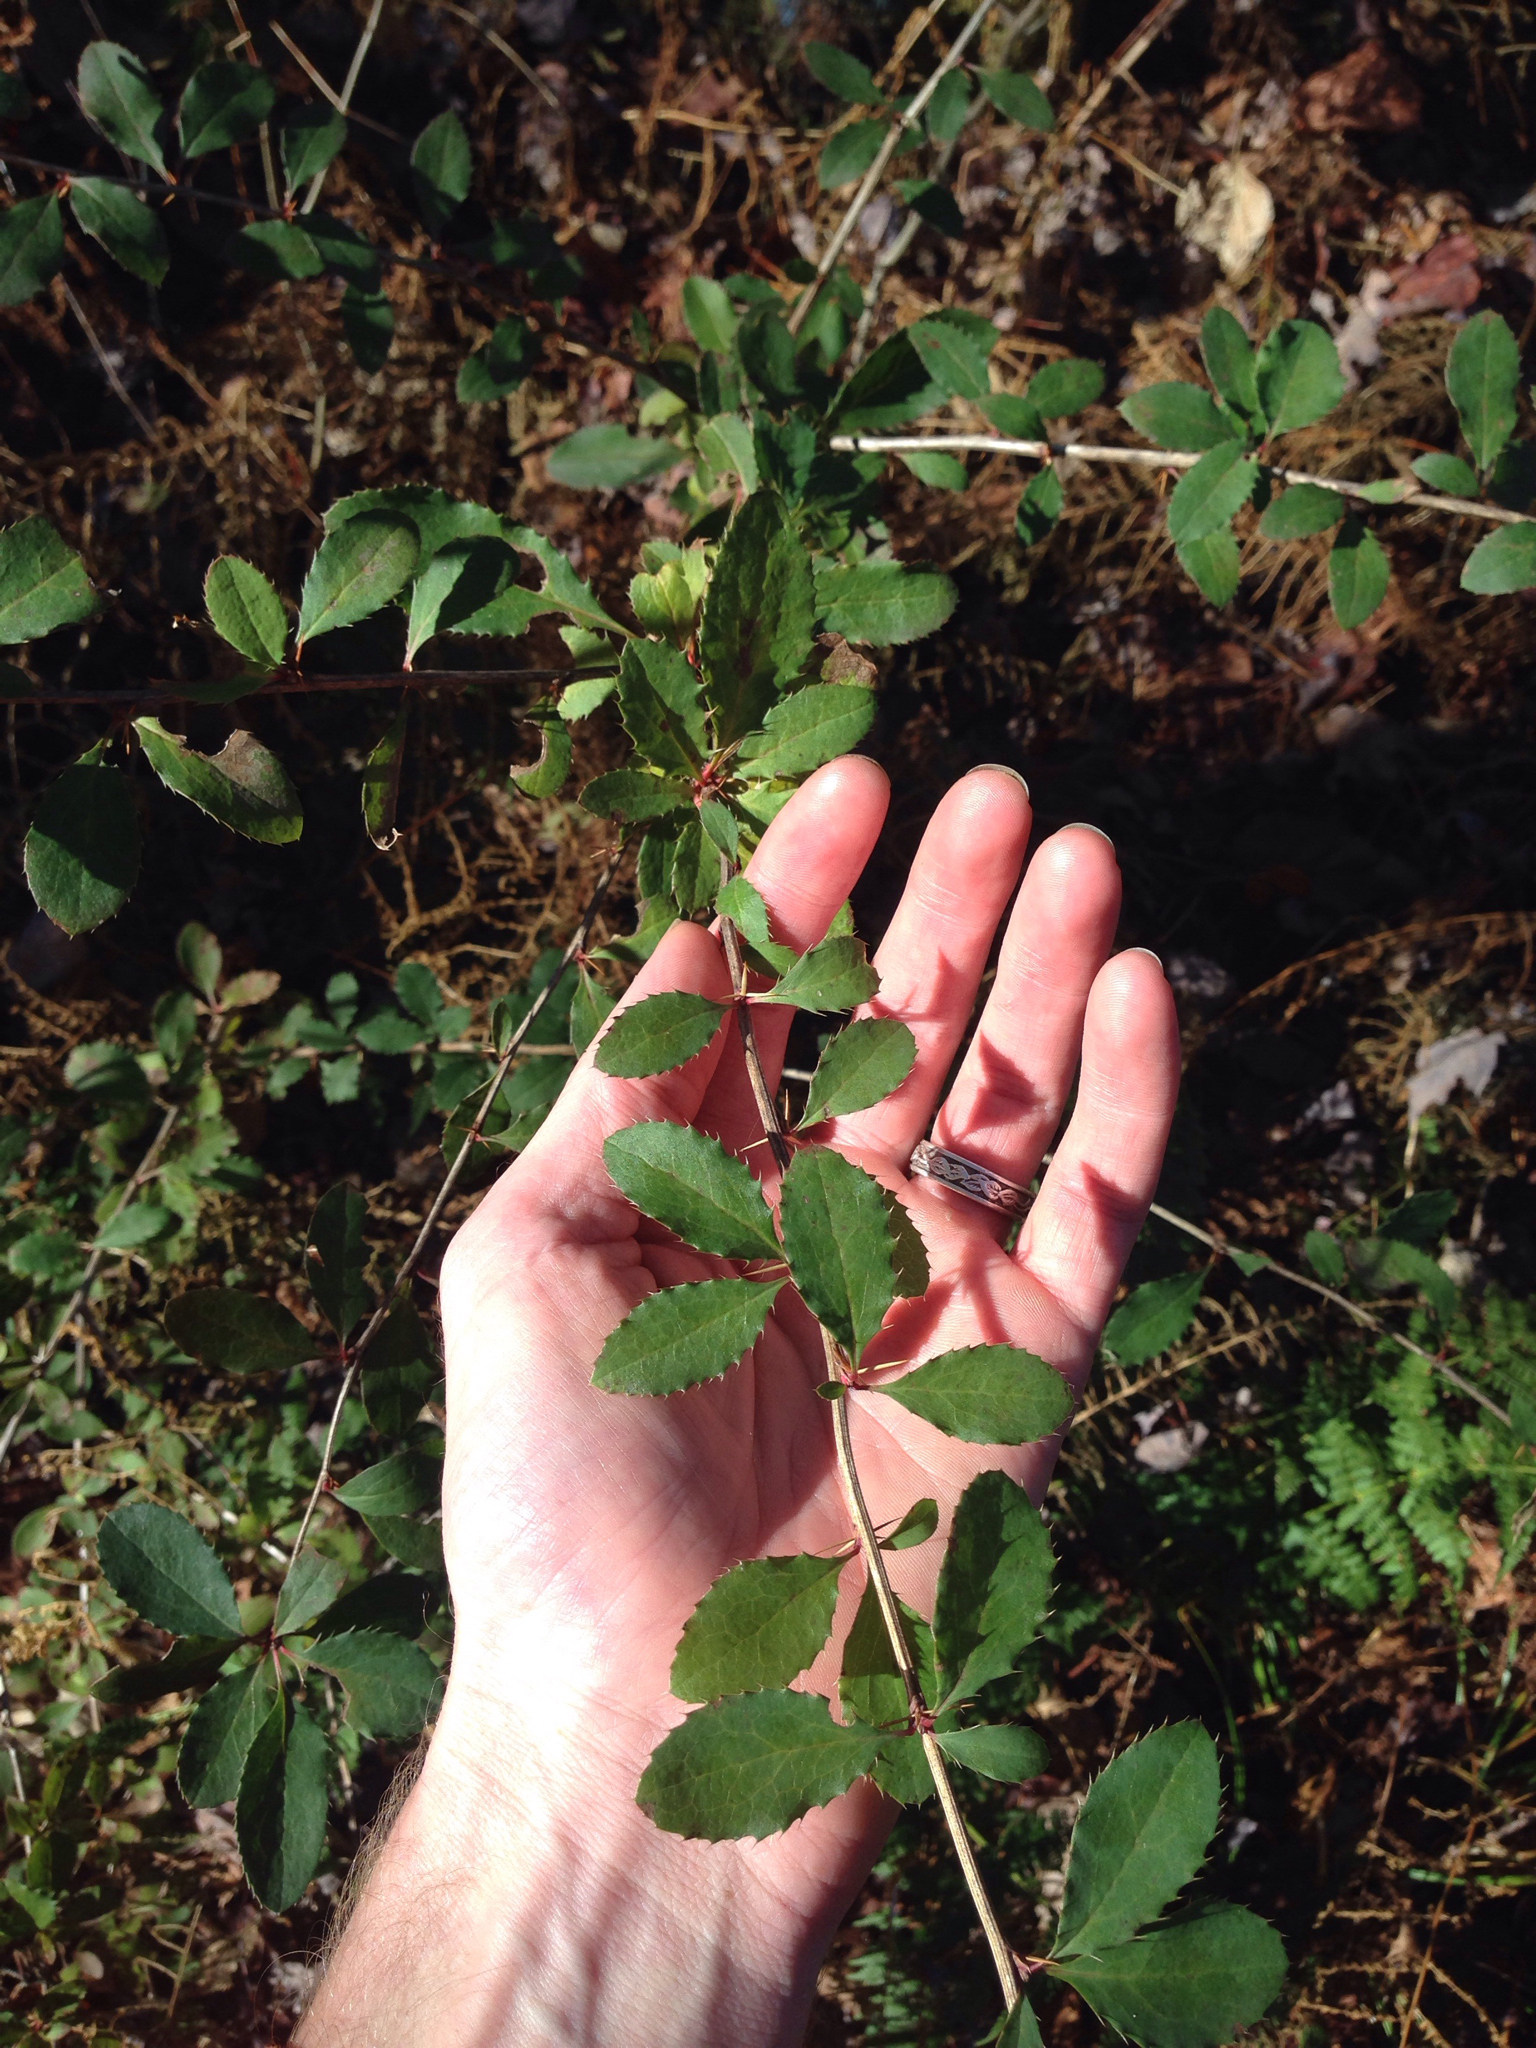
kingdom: Plantae
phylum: Tracheophyta
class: Magnoliopsida
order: Ranunculales
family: Berberidaceae
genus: Berberis
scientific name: Berberis vulgaris
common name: Barberry
